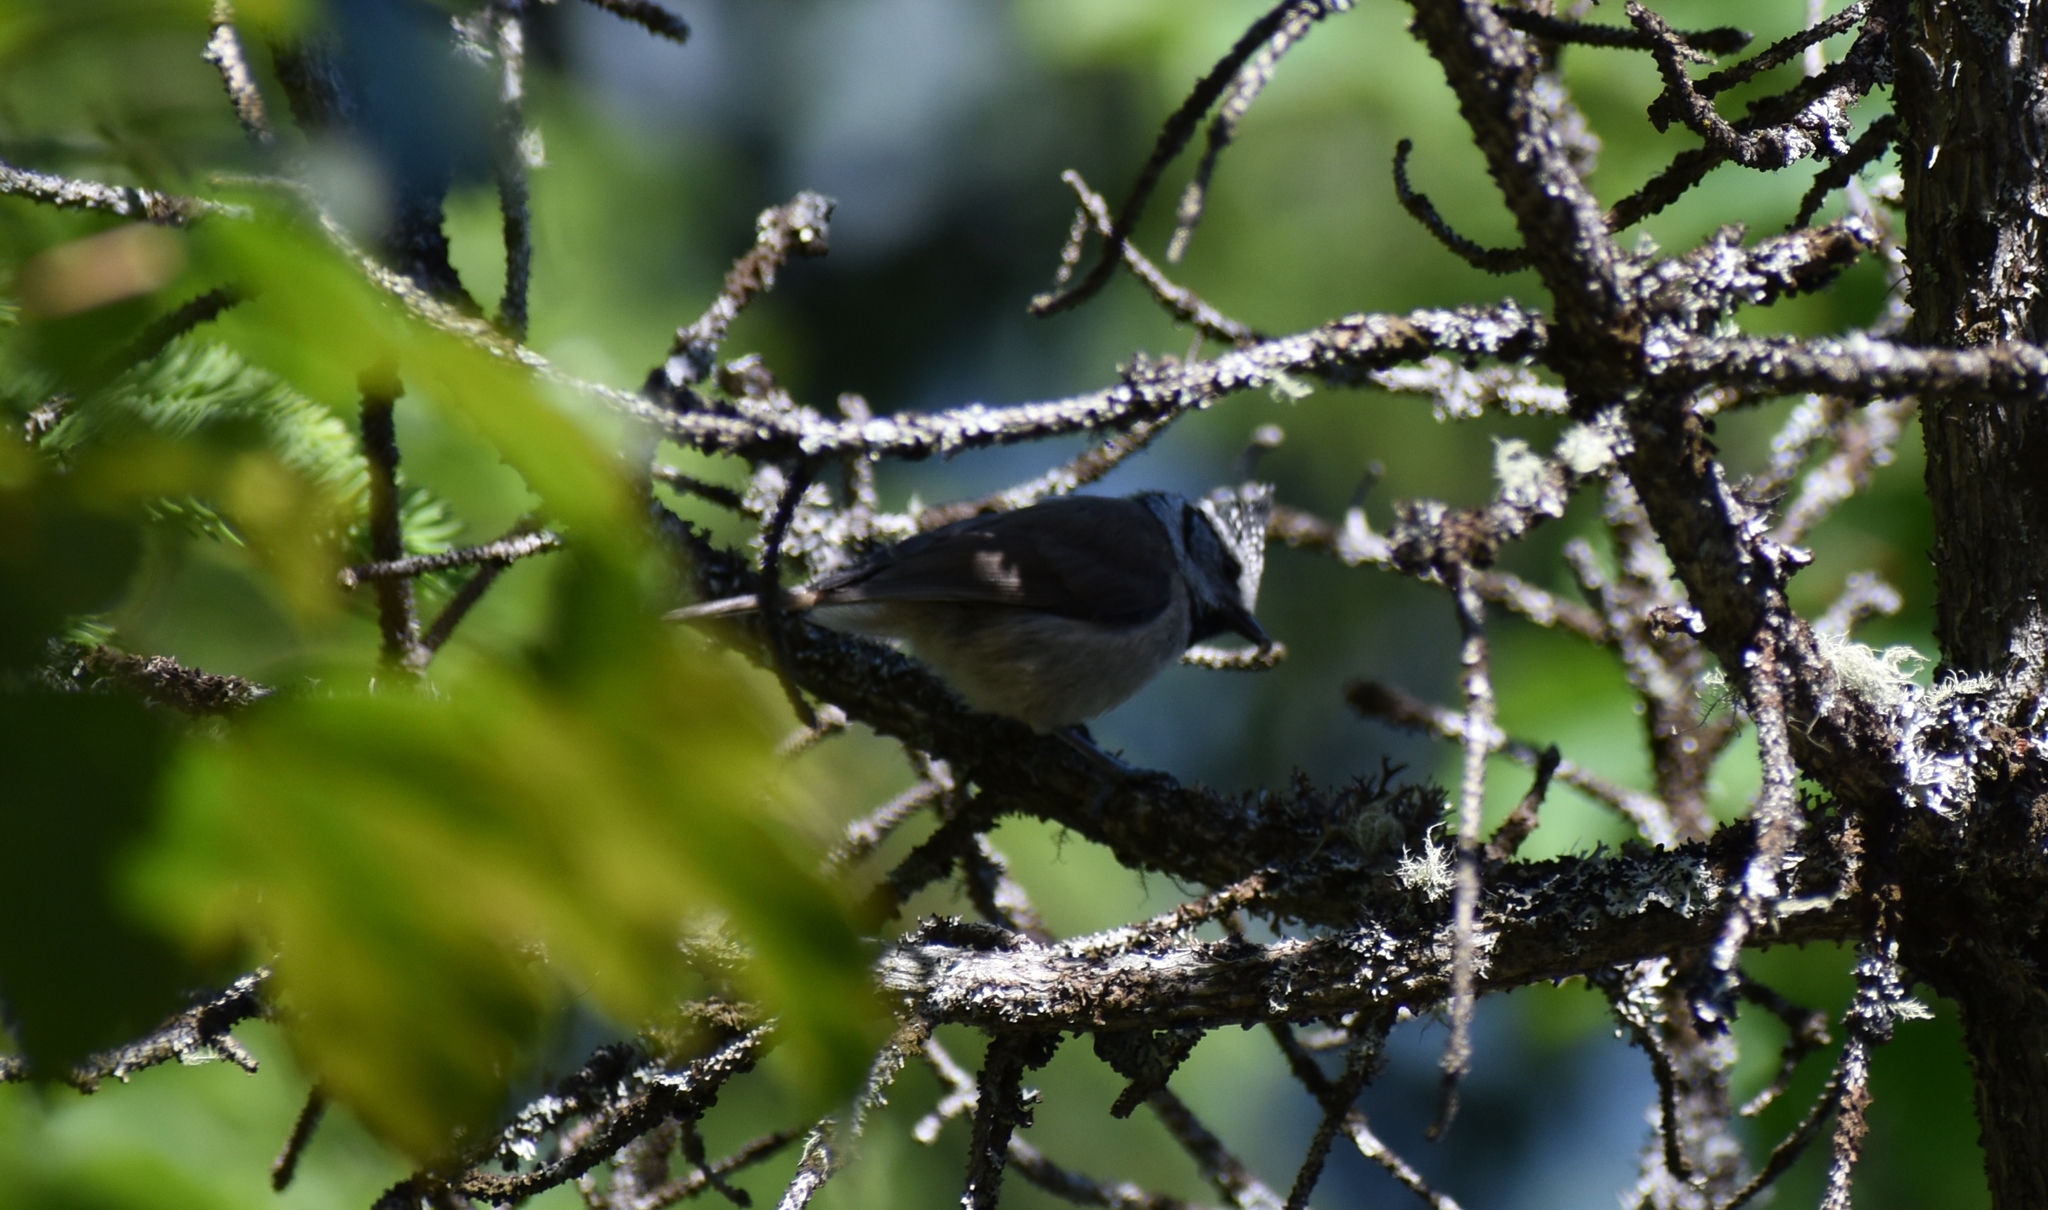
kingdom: Animalia
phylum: Chordata
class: Aves
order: Passeriformes
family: Paridae
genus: Lophophanes
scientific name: Lophophanes cristatus
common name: European crested tit
